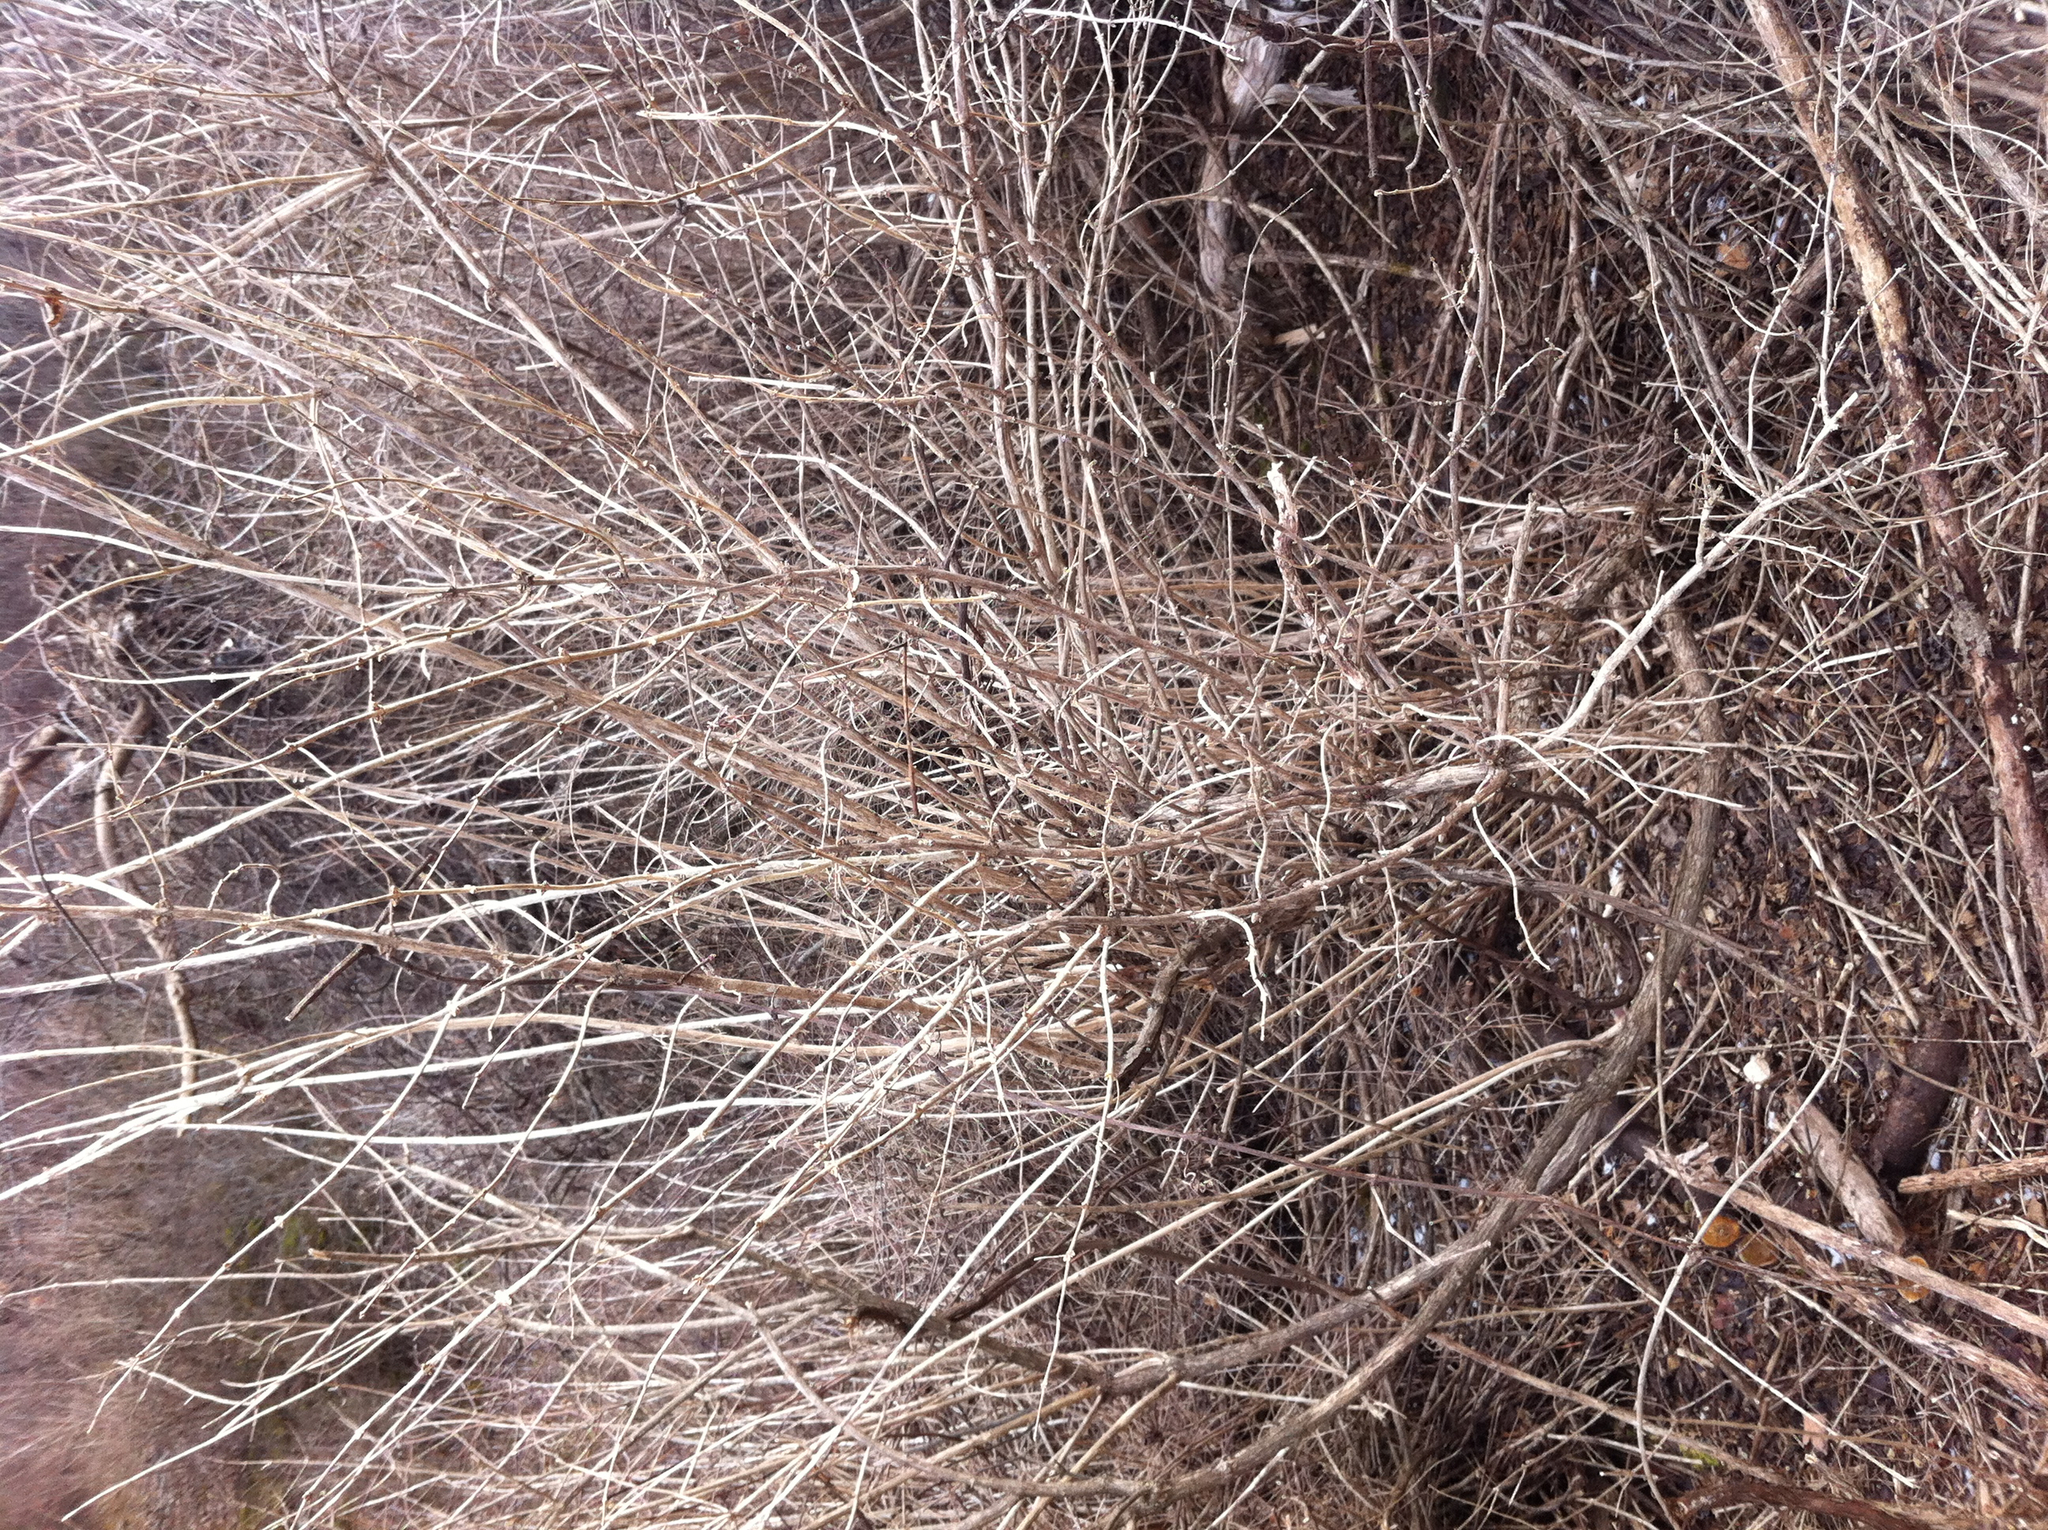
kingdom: Plantae
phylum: Tracheophyta
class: Magnoliopsida
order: Dipsacales
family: Caprifoliaceae
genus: Lonicera
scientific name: Lonicera morrowii
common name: Morrow's honeysuckle
